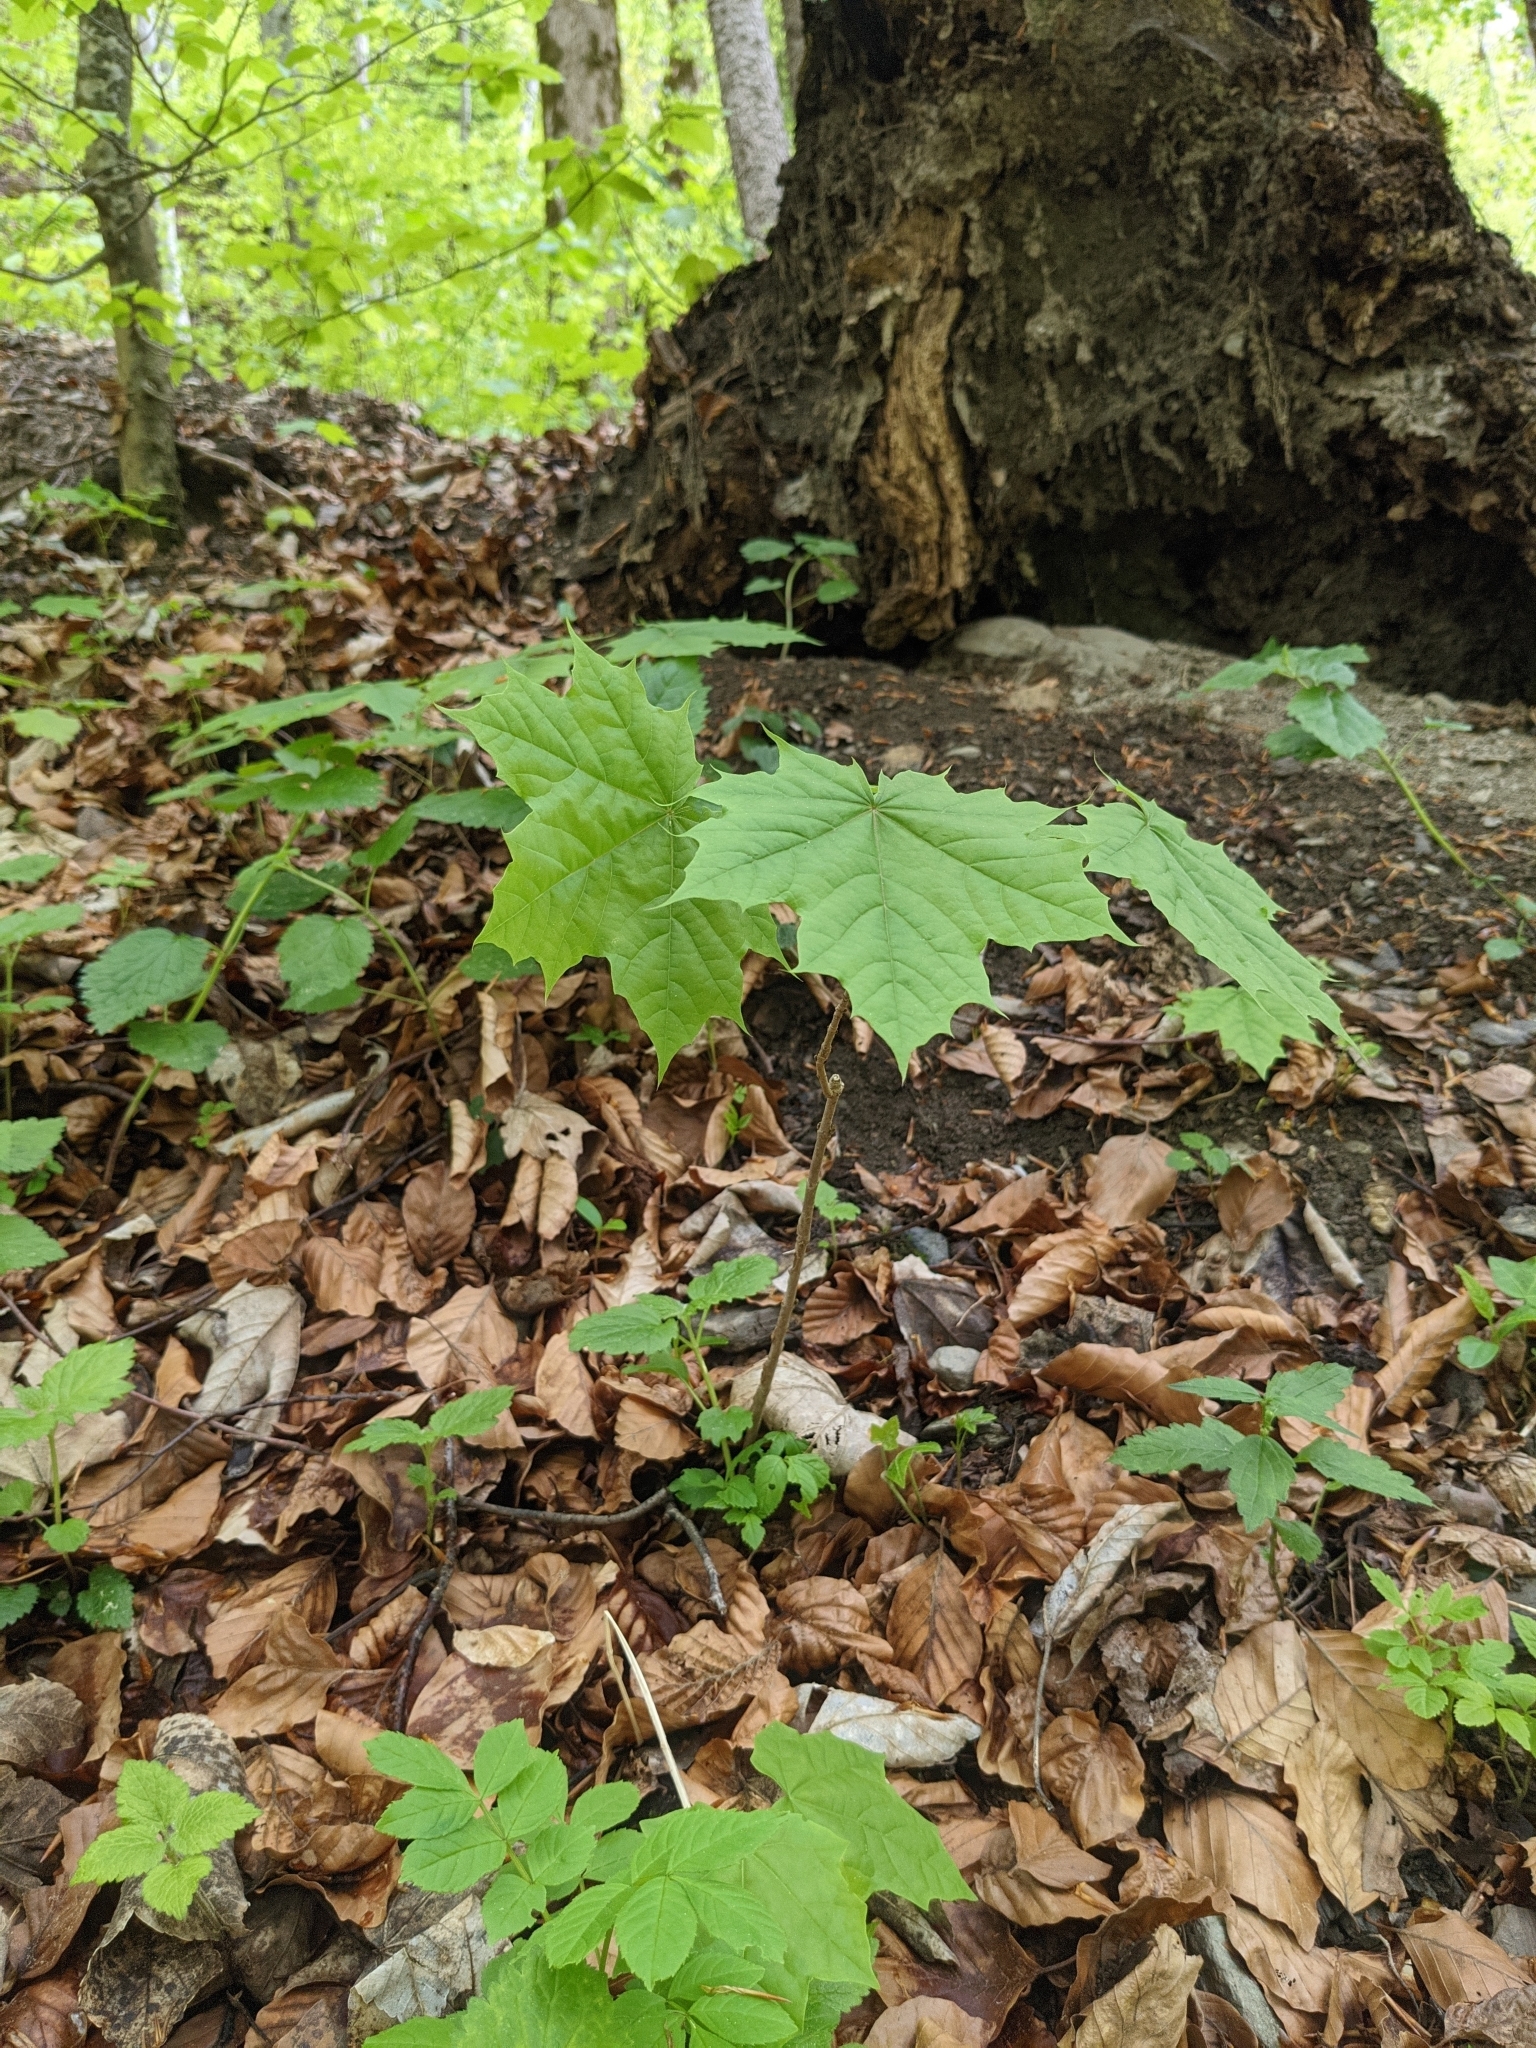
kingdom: Plantae
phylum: Tracheophyta
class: Magnoliopsida
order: Sapindales
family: Sapindaceae
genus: Acer
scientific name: Acer platanoides
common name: Norway maple
